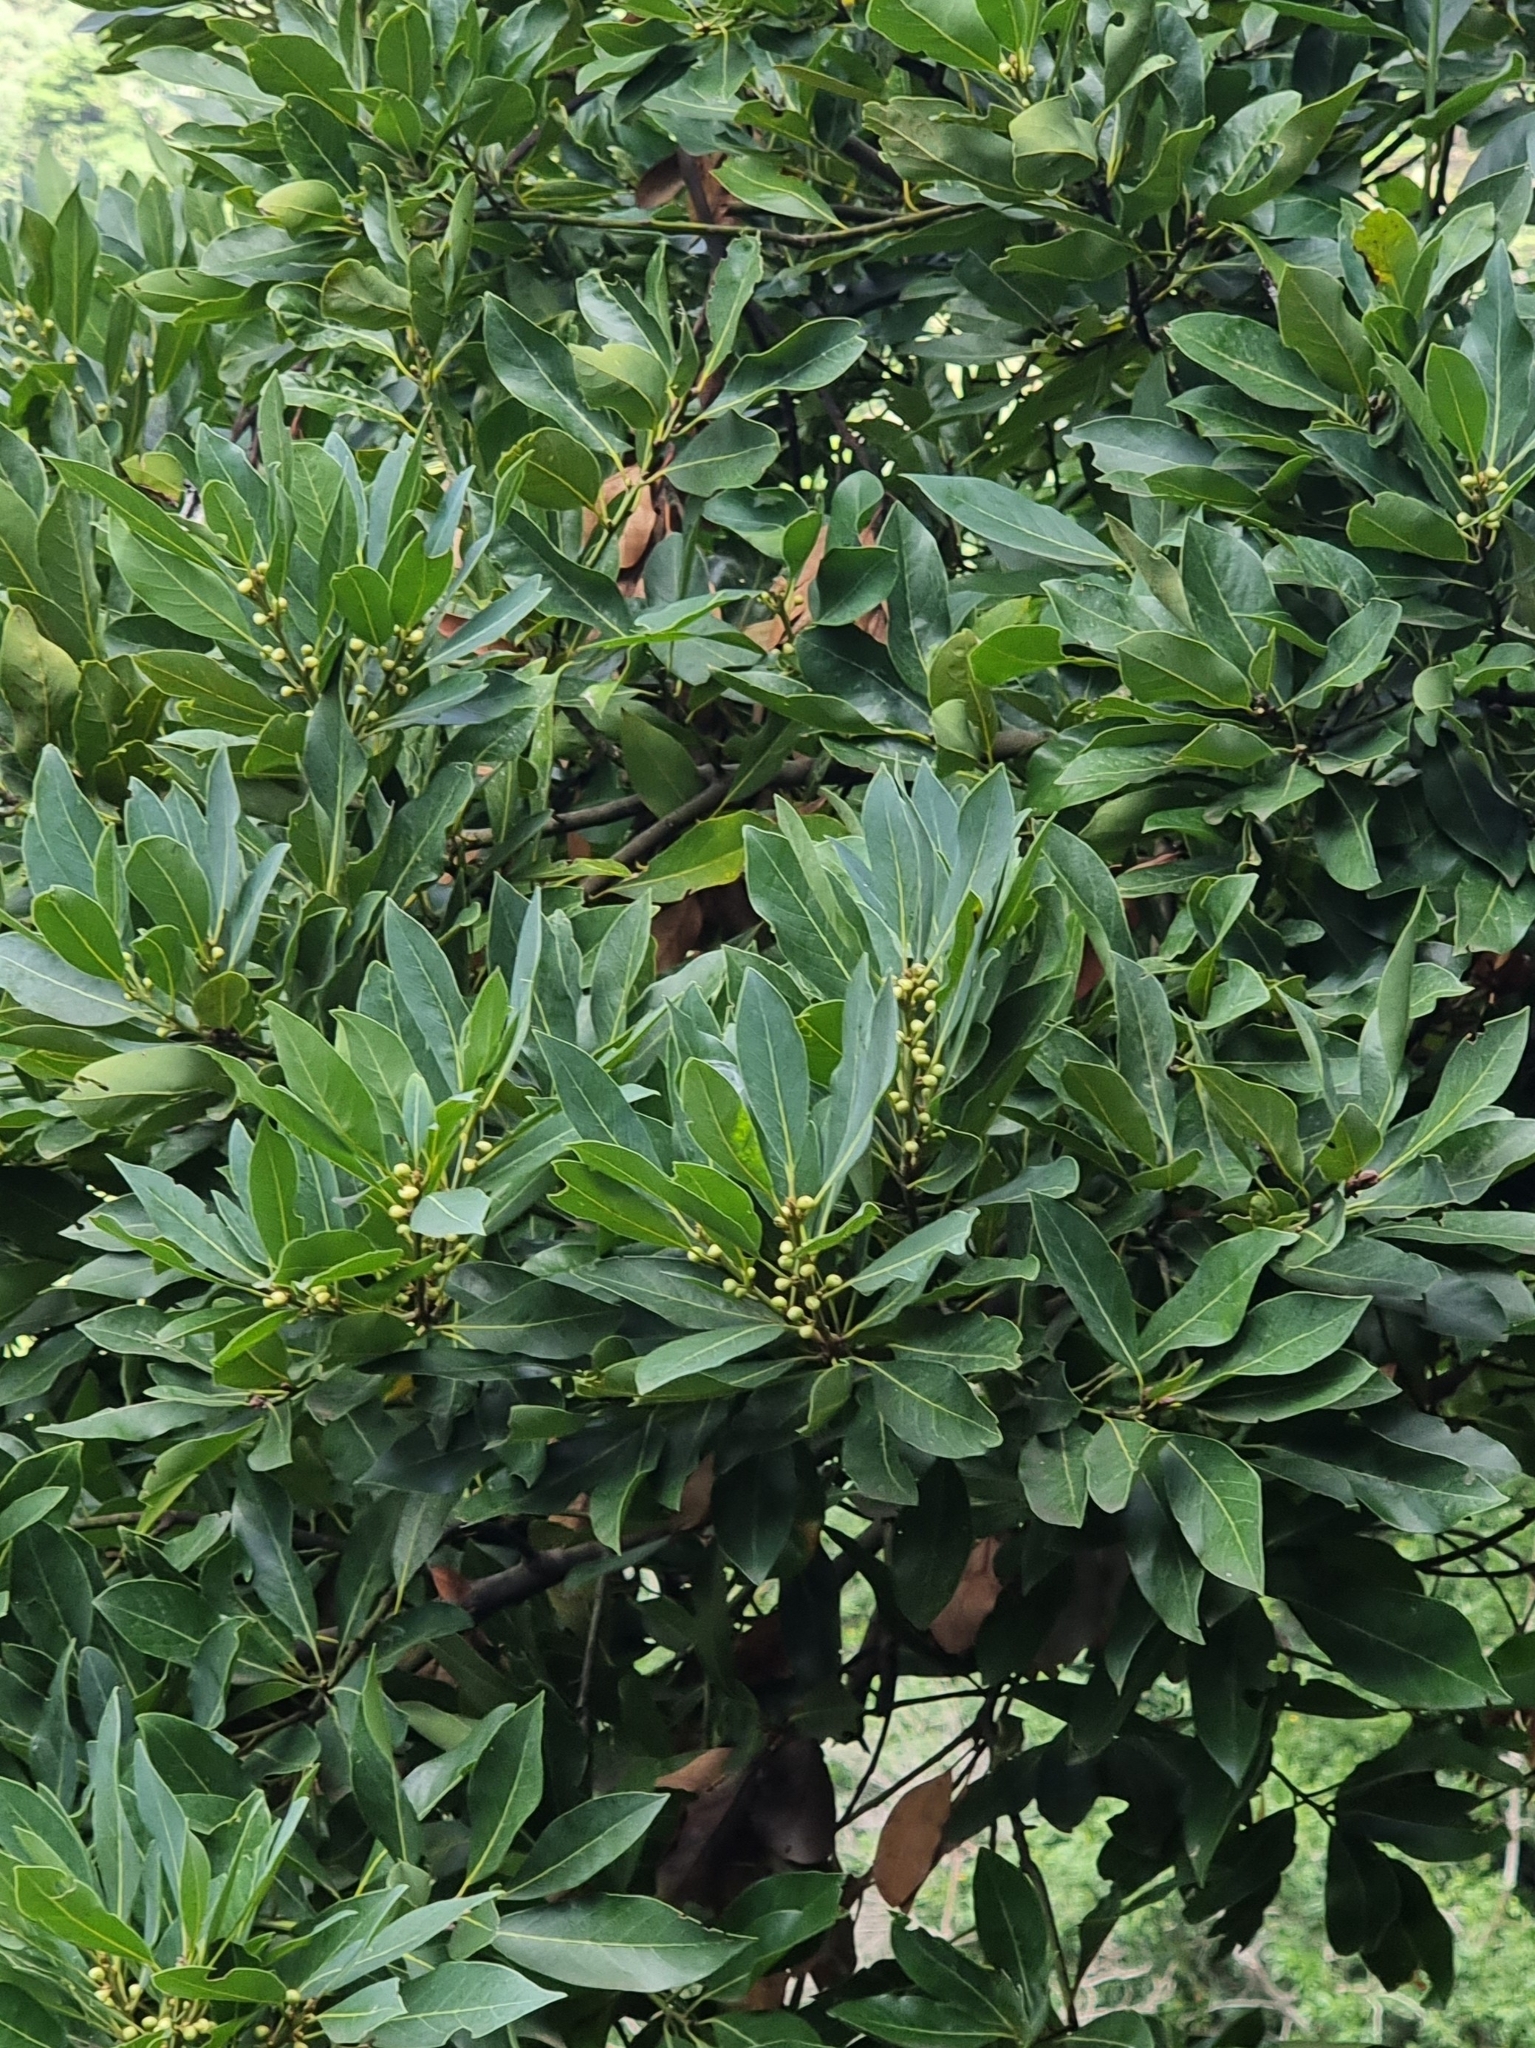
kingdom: Plantae
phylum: Tracheophyta
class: Magnoliopsida
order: Laurales
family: Lauraceae
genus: Laurus
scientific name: Laurus novocanariensis
